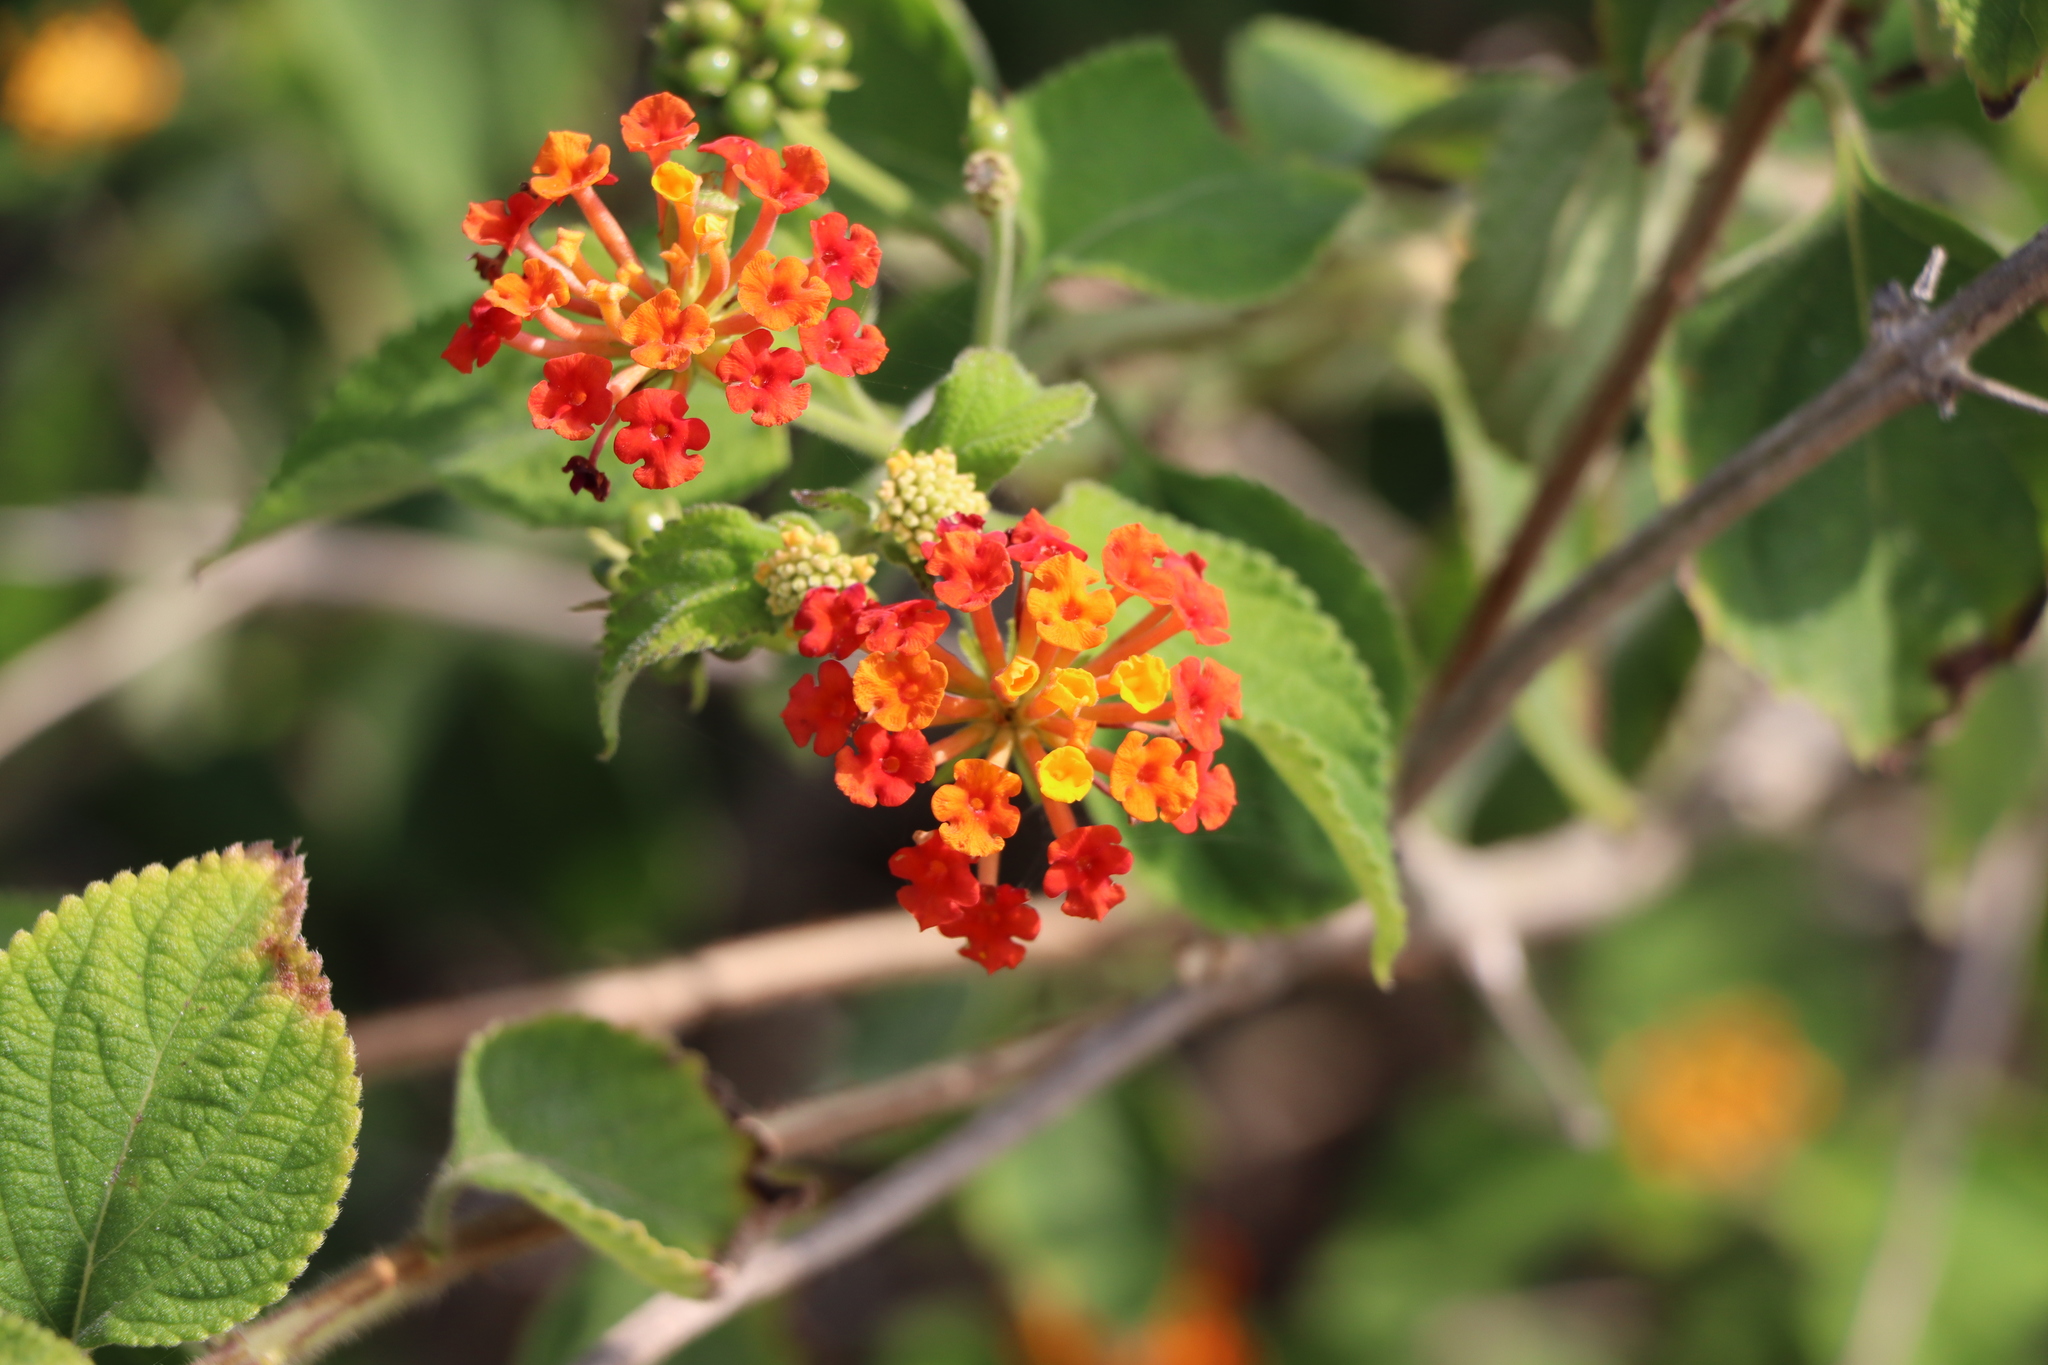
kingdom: Plantae
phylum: Tracheophyta
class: Magnoliopsida
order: Lamiales
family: Verbenaceae
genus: Lantana
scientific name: Lantana camara
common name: Lantana
